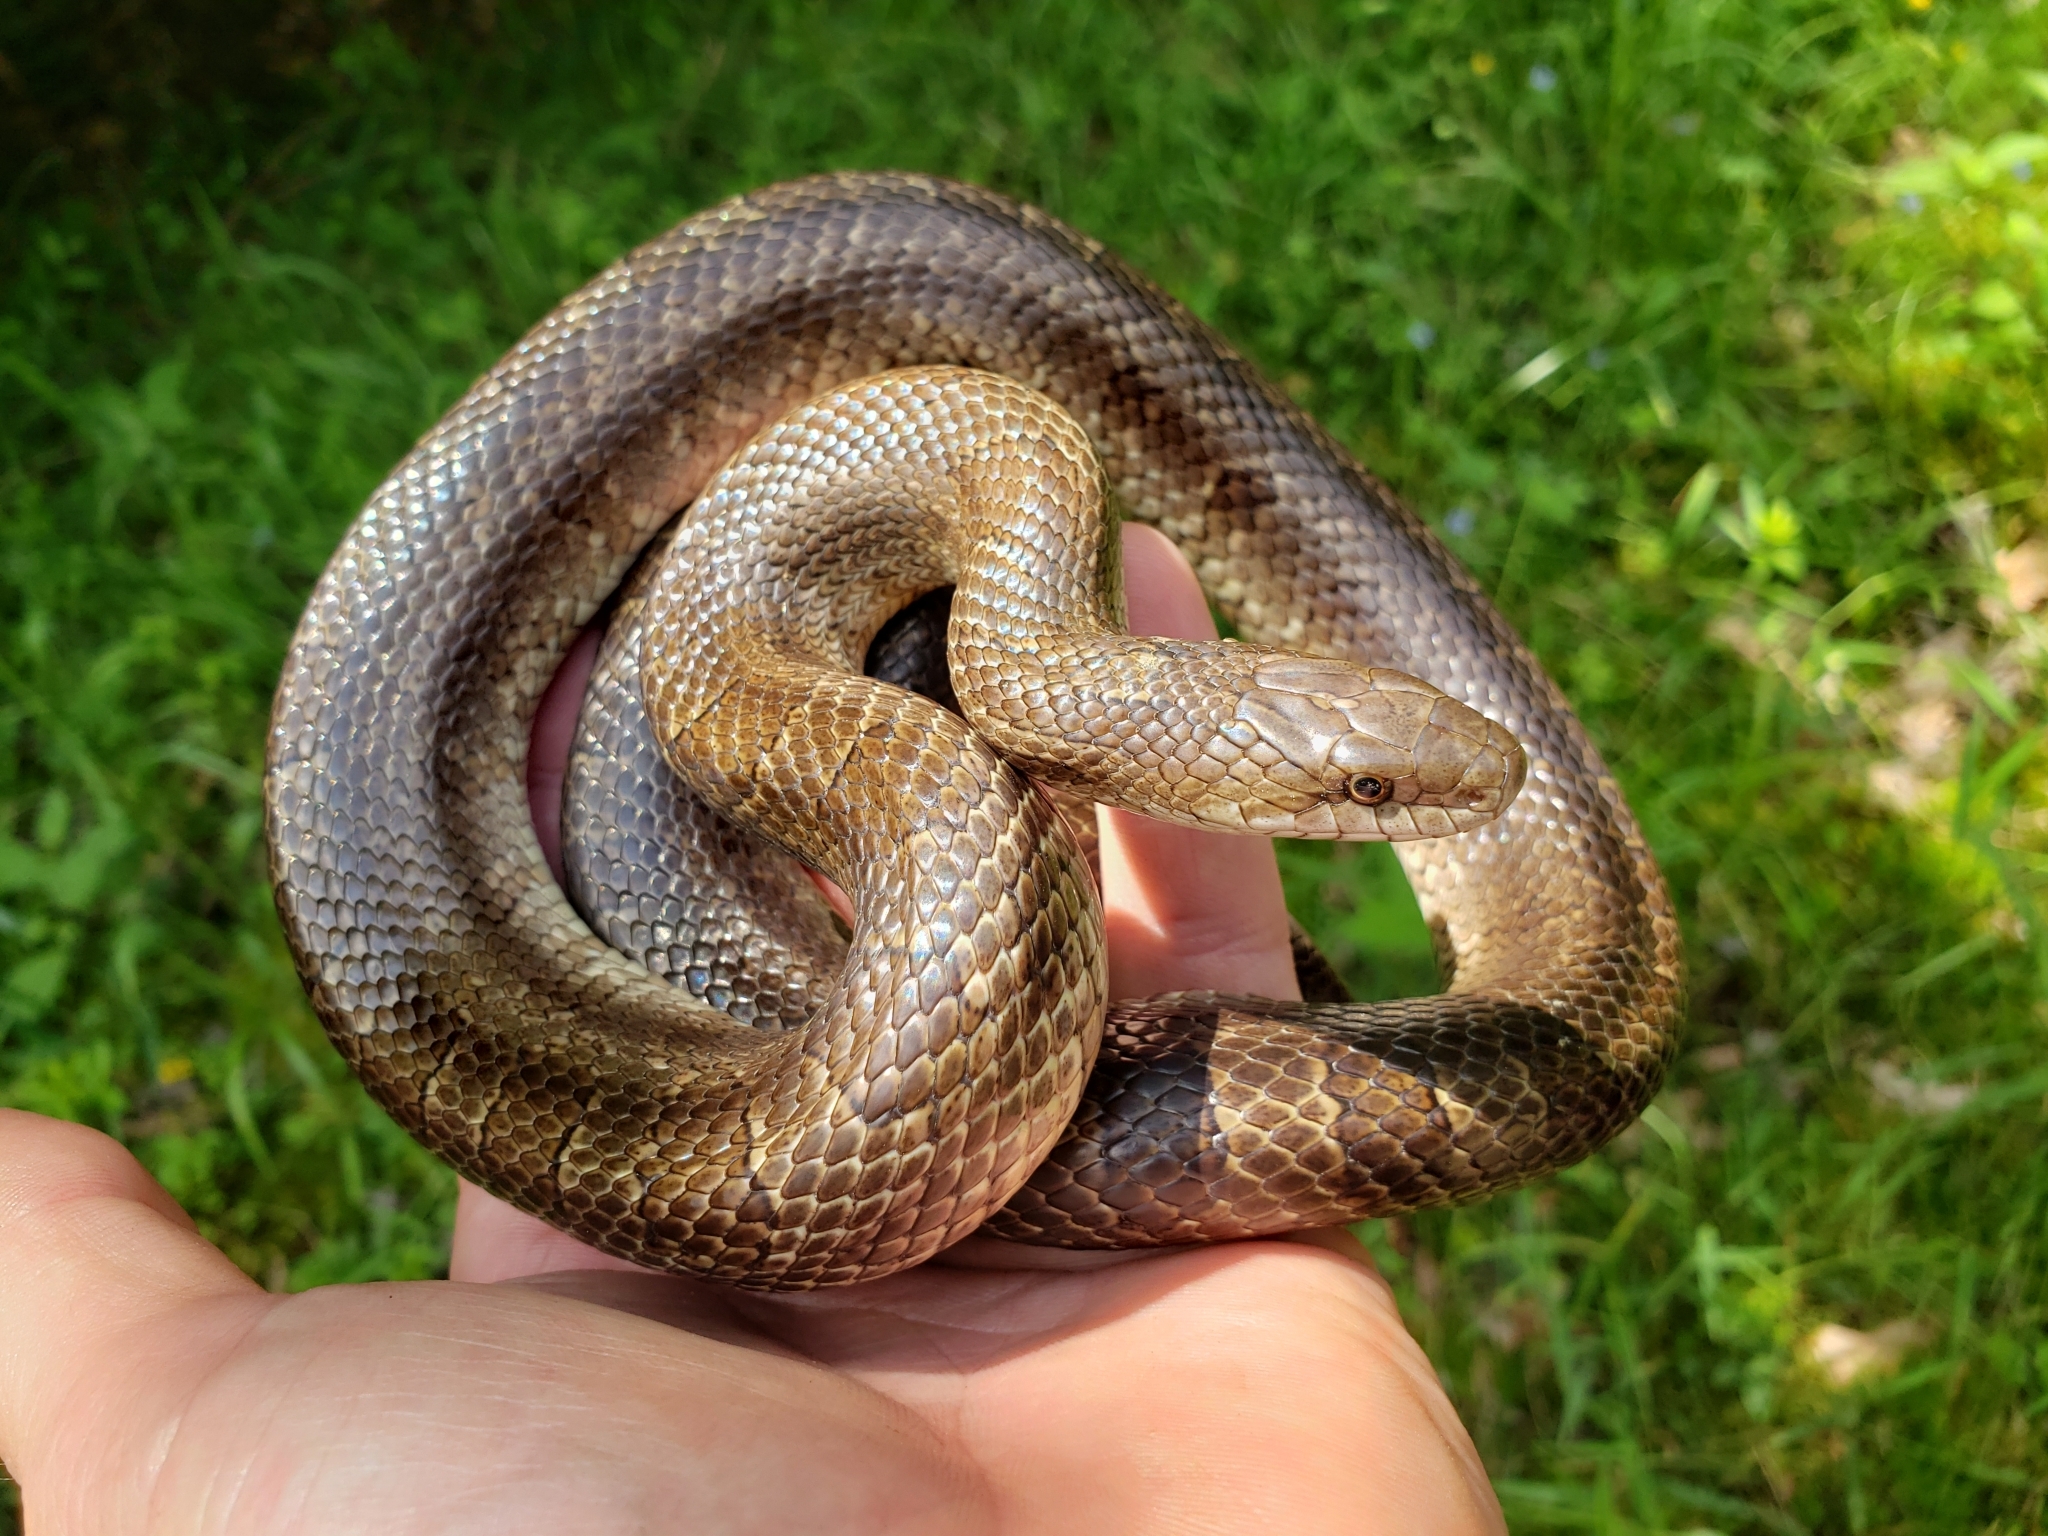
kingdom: Animalia
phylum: Chordata
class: Squamata
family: Colubridae
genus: Lampropeltis
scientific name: Lampropeltis calligaster
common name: Prairie kingsnake
